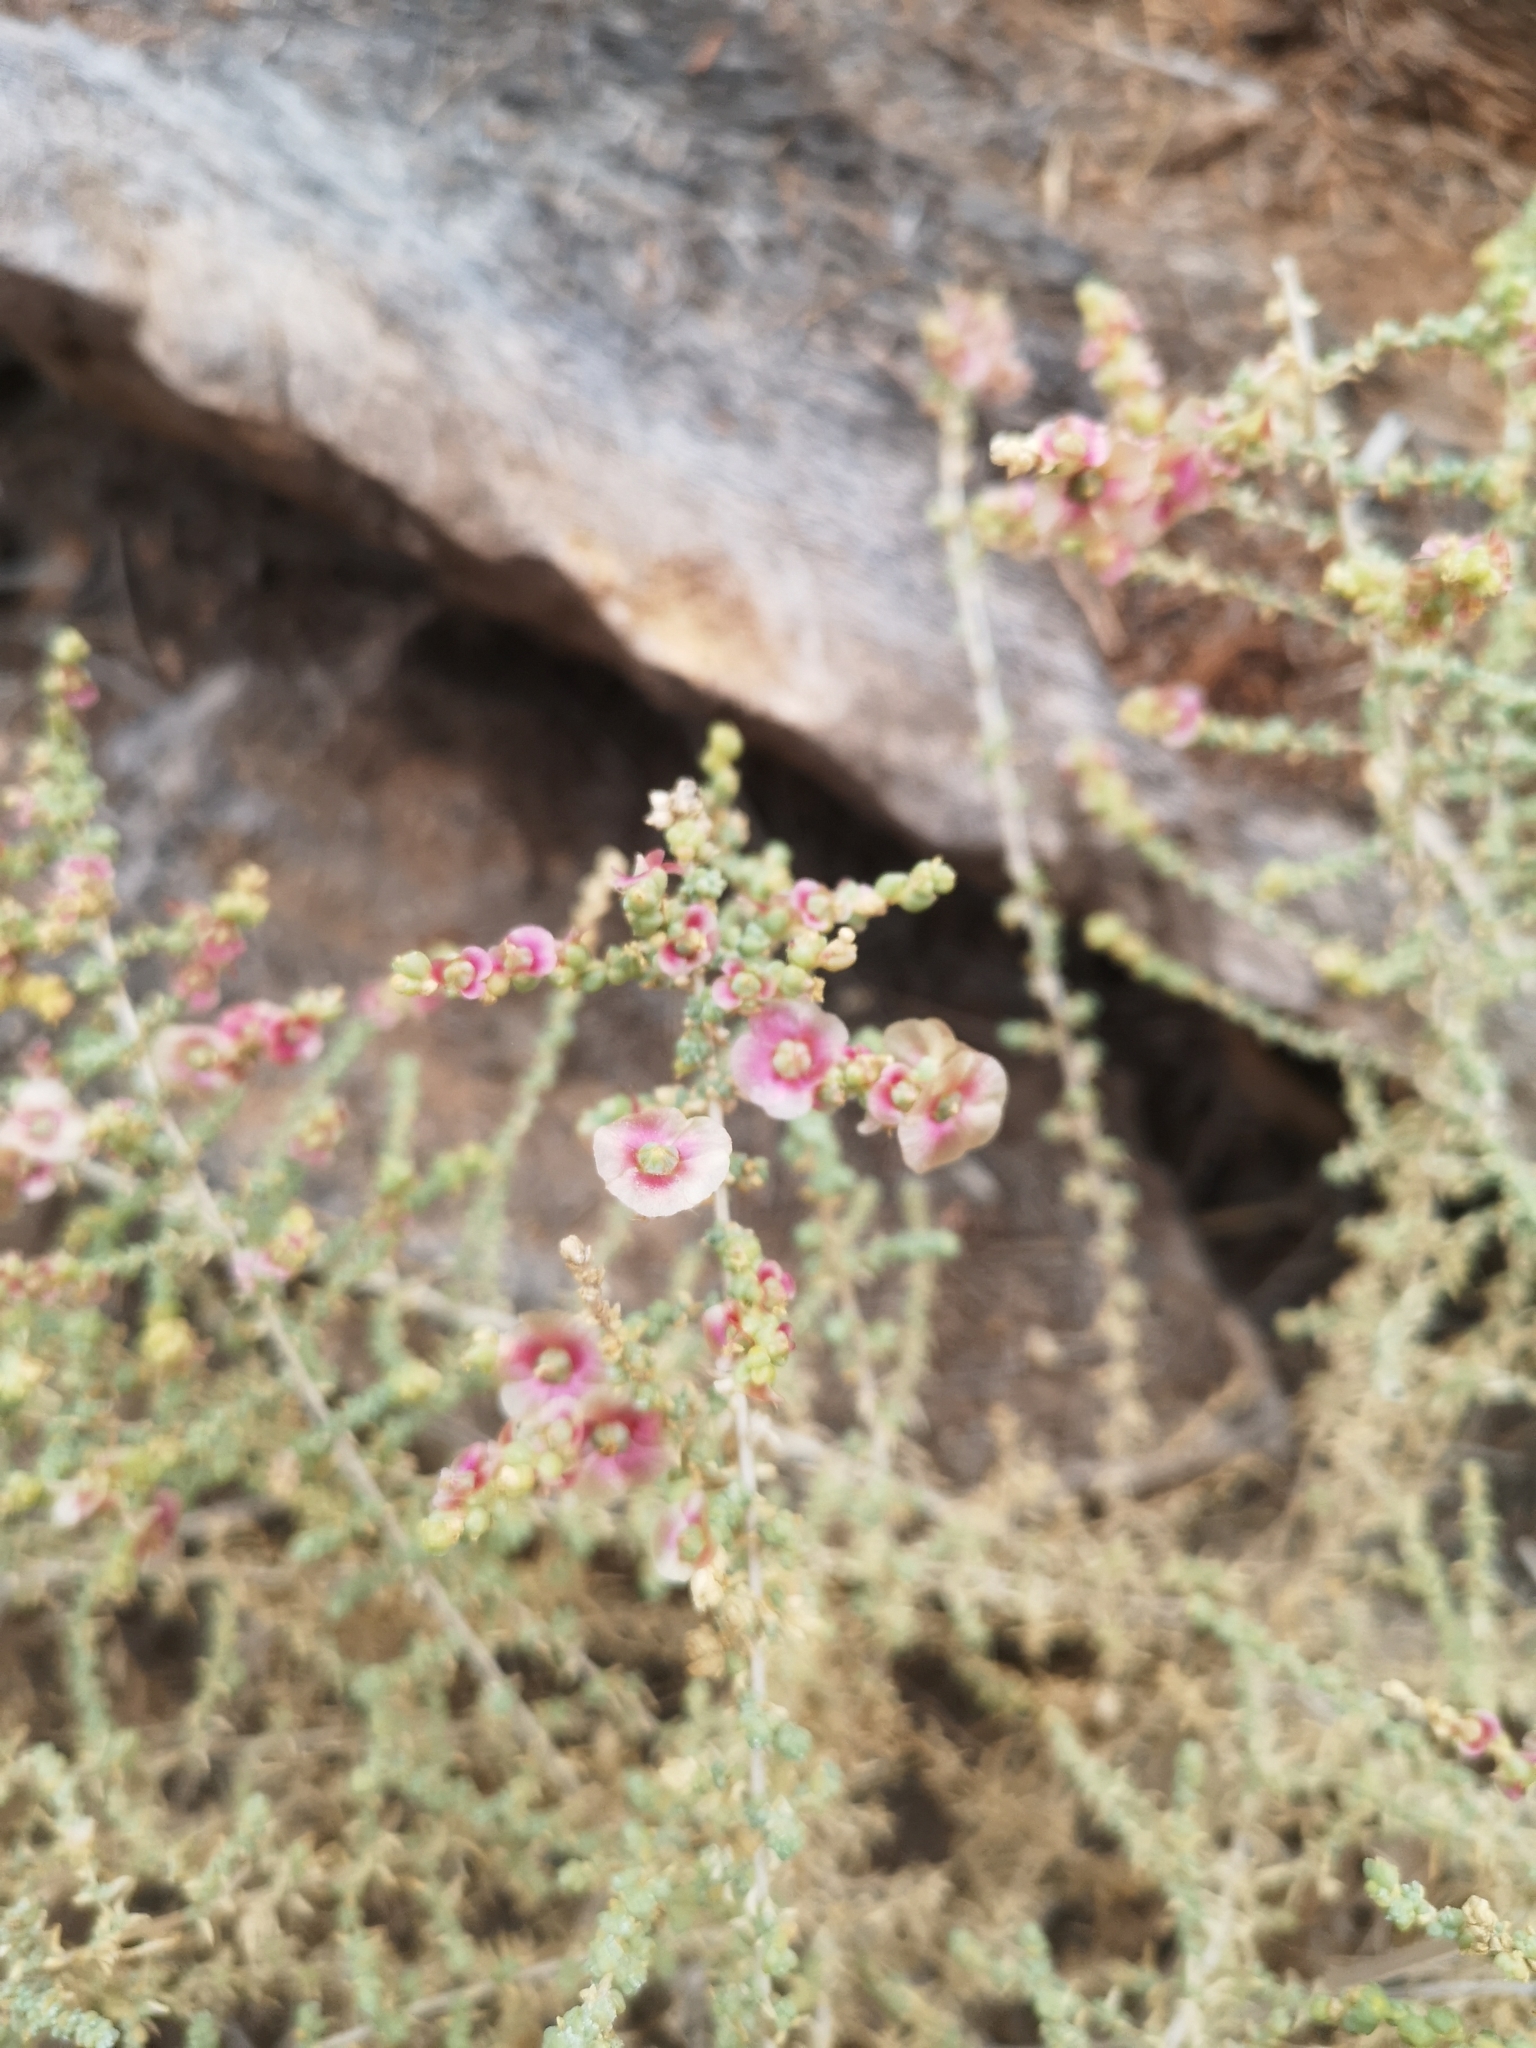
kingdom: Plantae
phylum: Tracheophyta
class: Magnoliopsida
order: Caryophyllales
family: Amaranthaceae
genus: Nitrosalsola
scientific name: Nitrosalsola vermiculata
